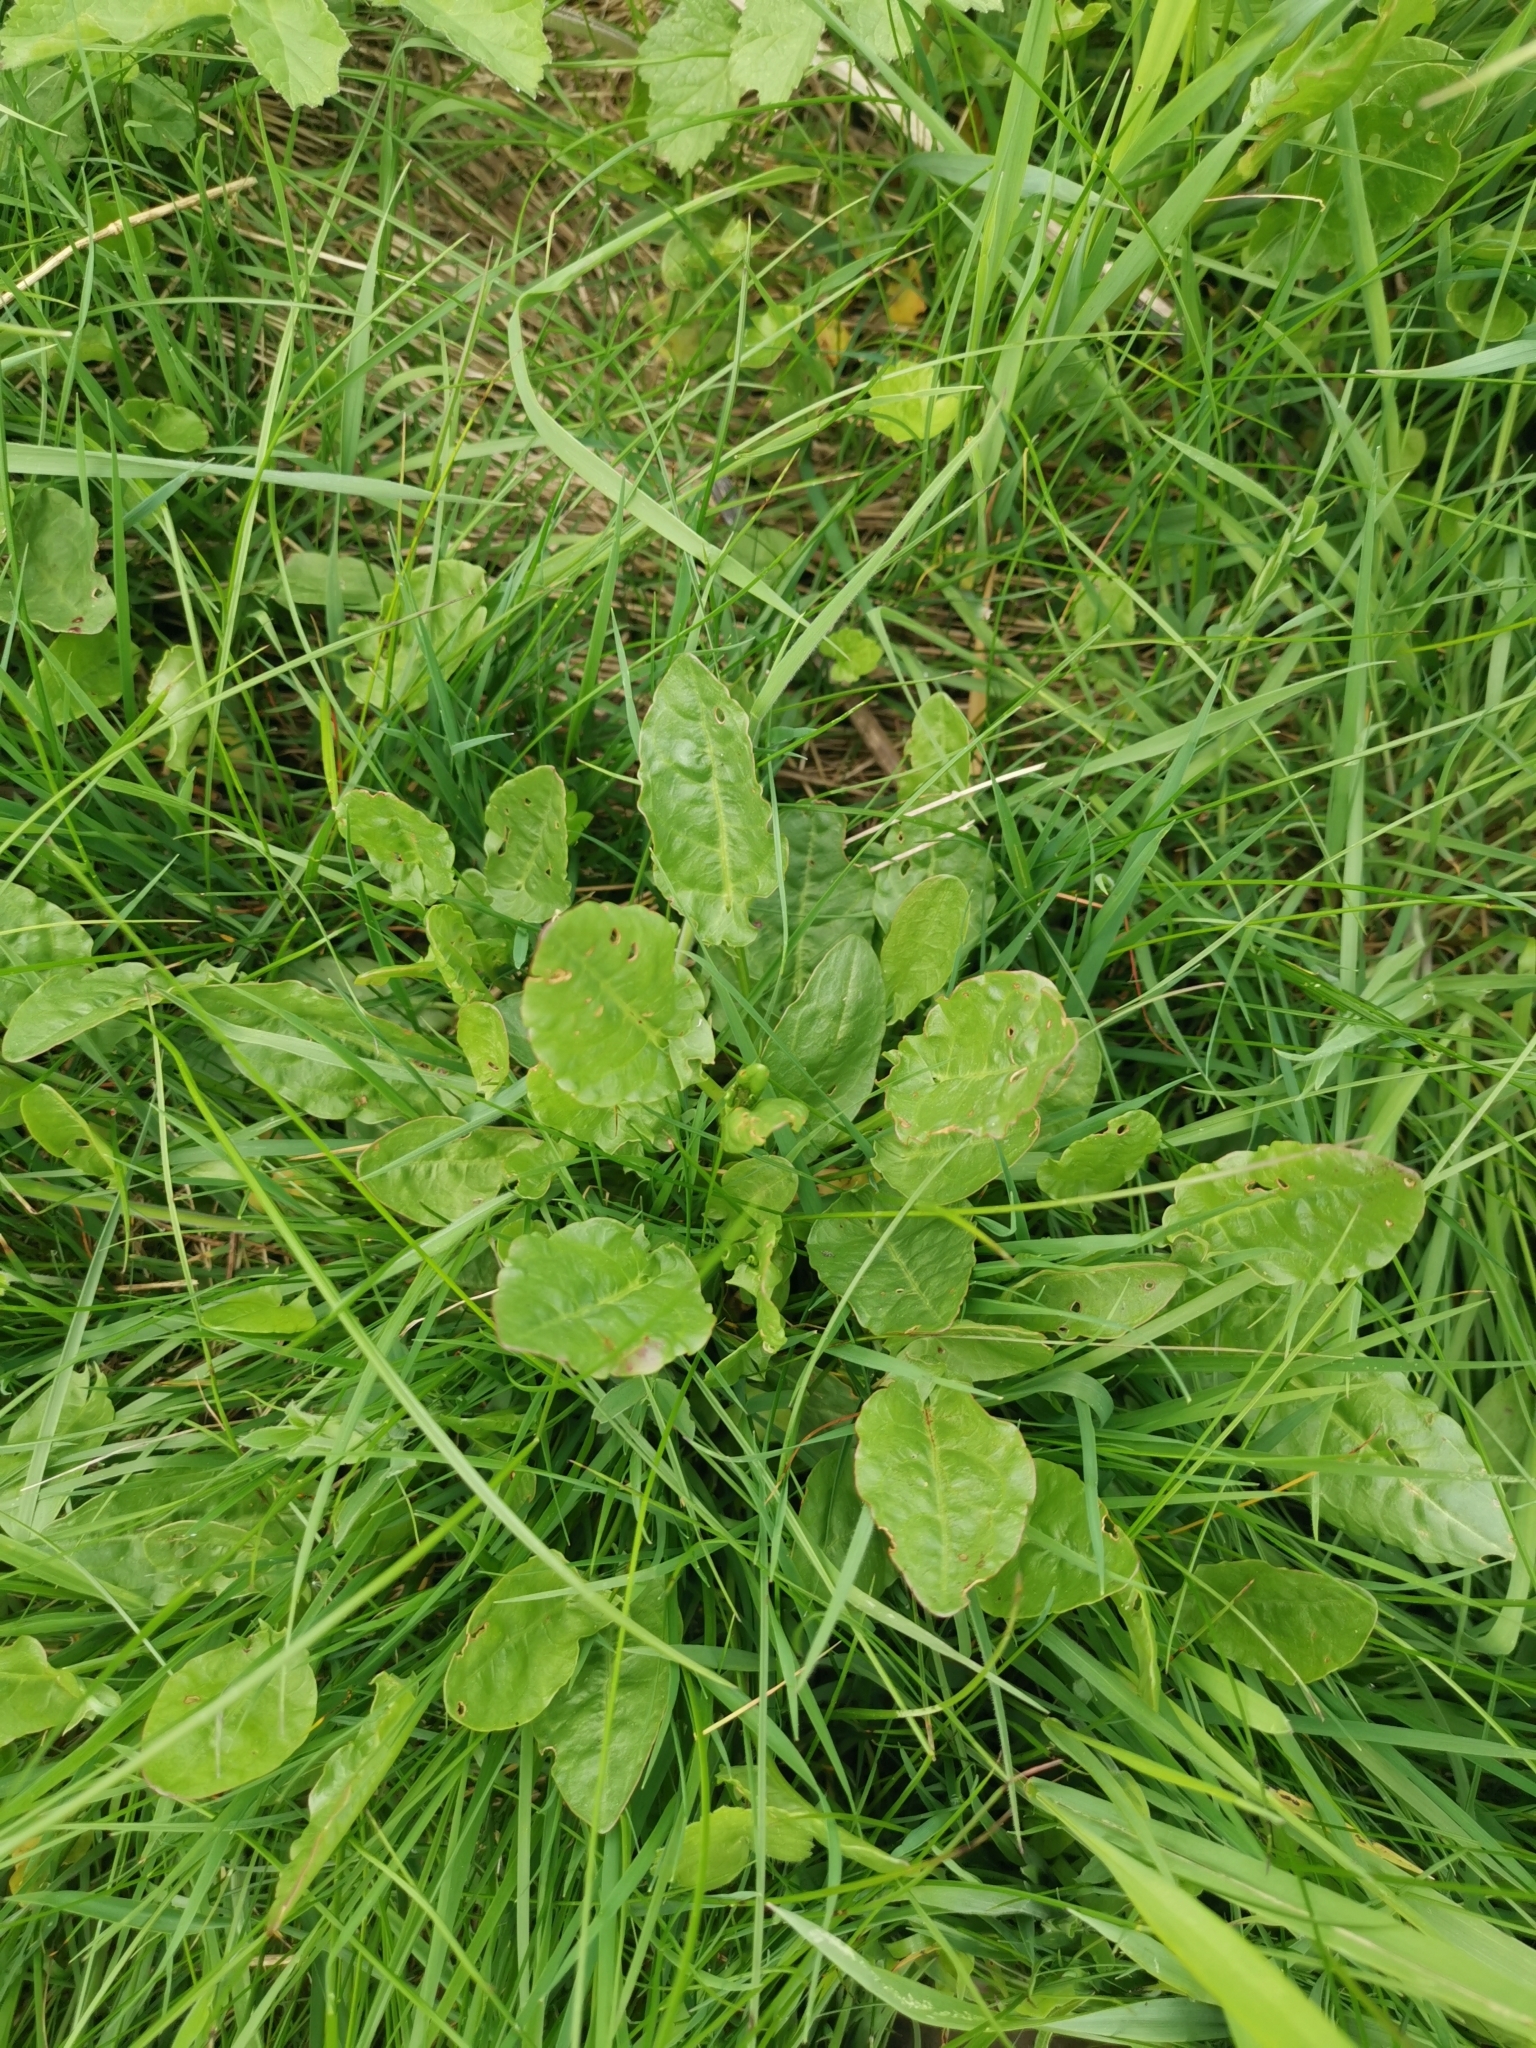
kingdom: Plantae
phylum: Tracheophyta
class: Magnoliopsida
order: Caryophyllales
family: Polygonaceae
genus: Rumex
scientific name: Rumex acetosa
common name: Garden sorrel
